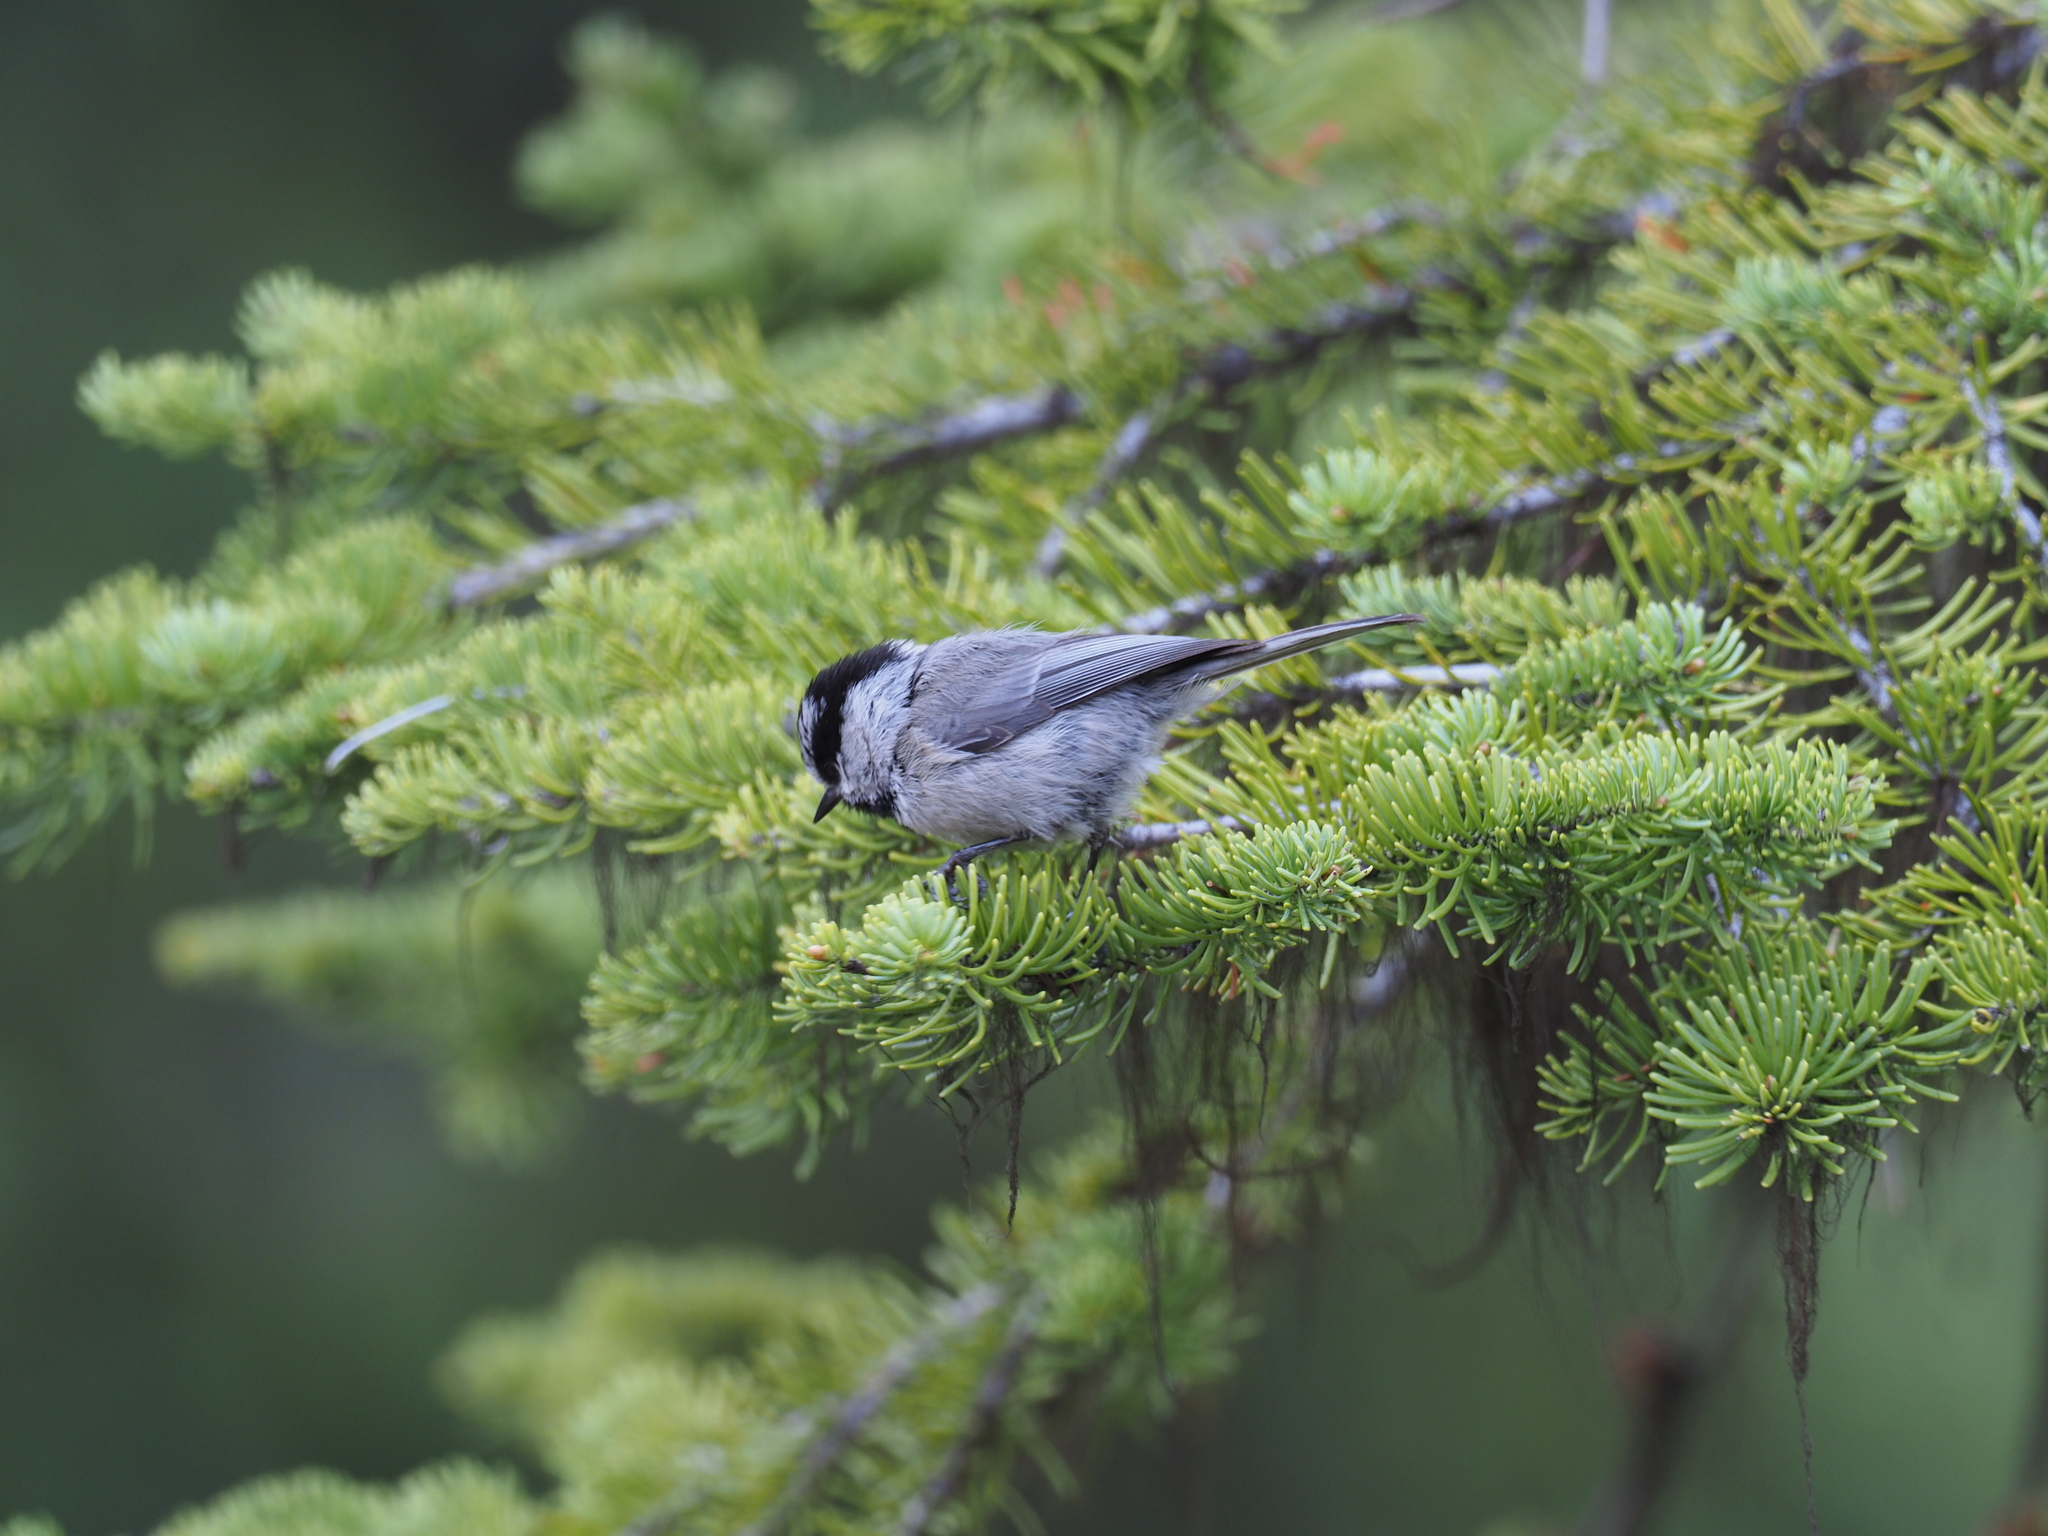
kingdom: Animalia
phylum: Chordata
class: Aves
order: Passeriformes
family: Paridae
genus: Poecile
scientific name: Poecile gambeli
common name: Mountain chickadee
